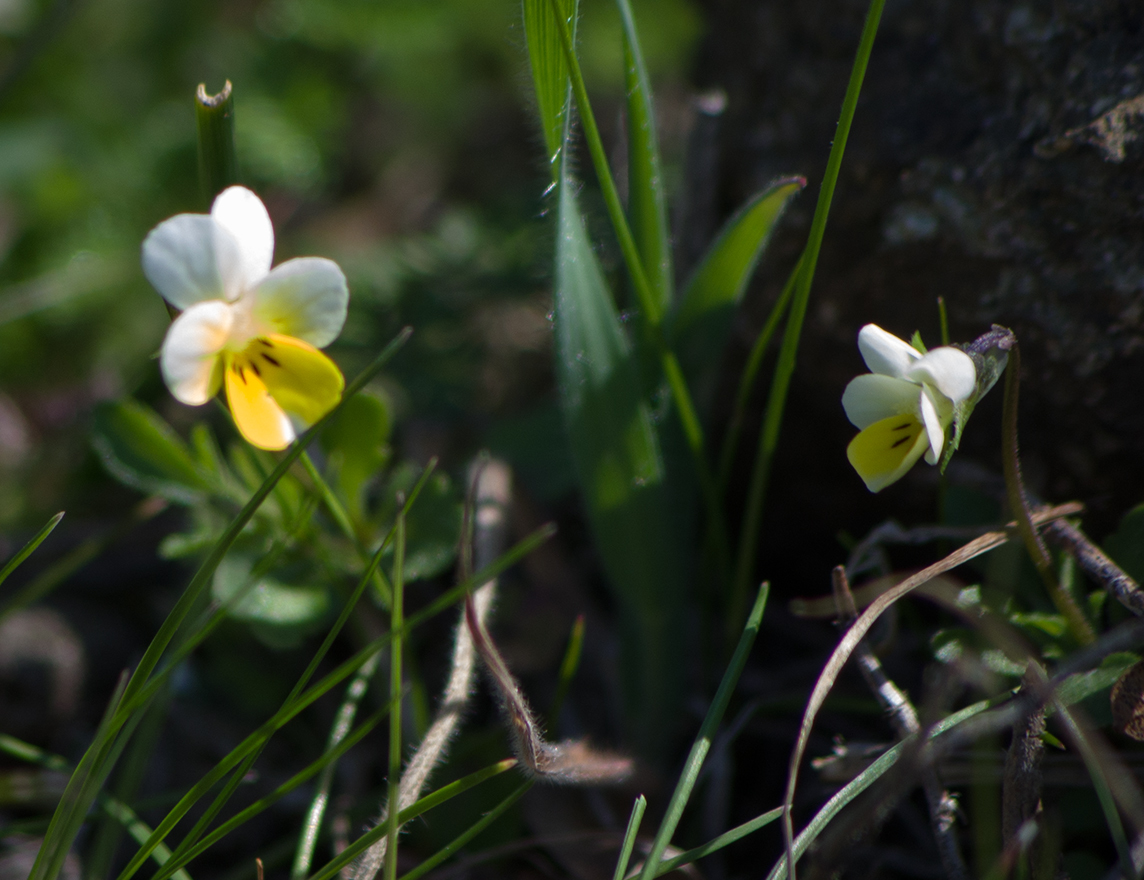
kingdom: Plantae
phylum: Tracheophyta
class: Magnoliopsida
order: Malpighiales
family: Violaceae
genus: Viola
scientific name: Viola arvensis
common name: Field pansy
